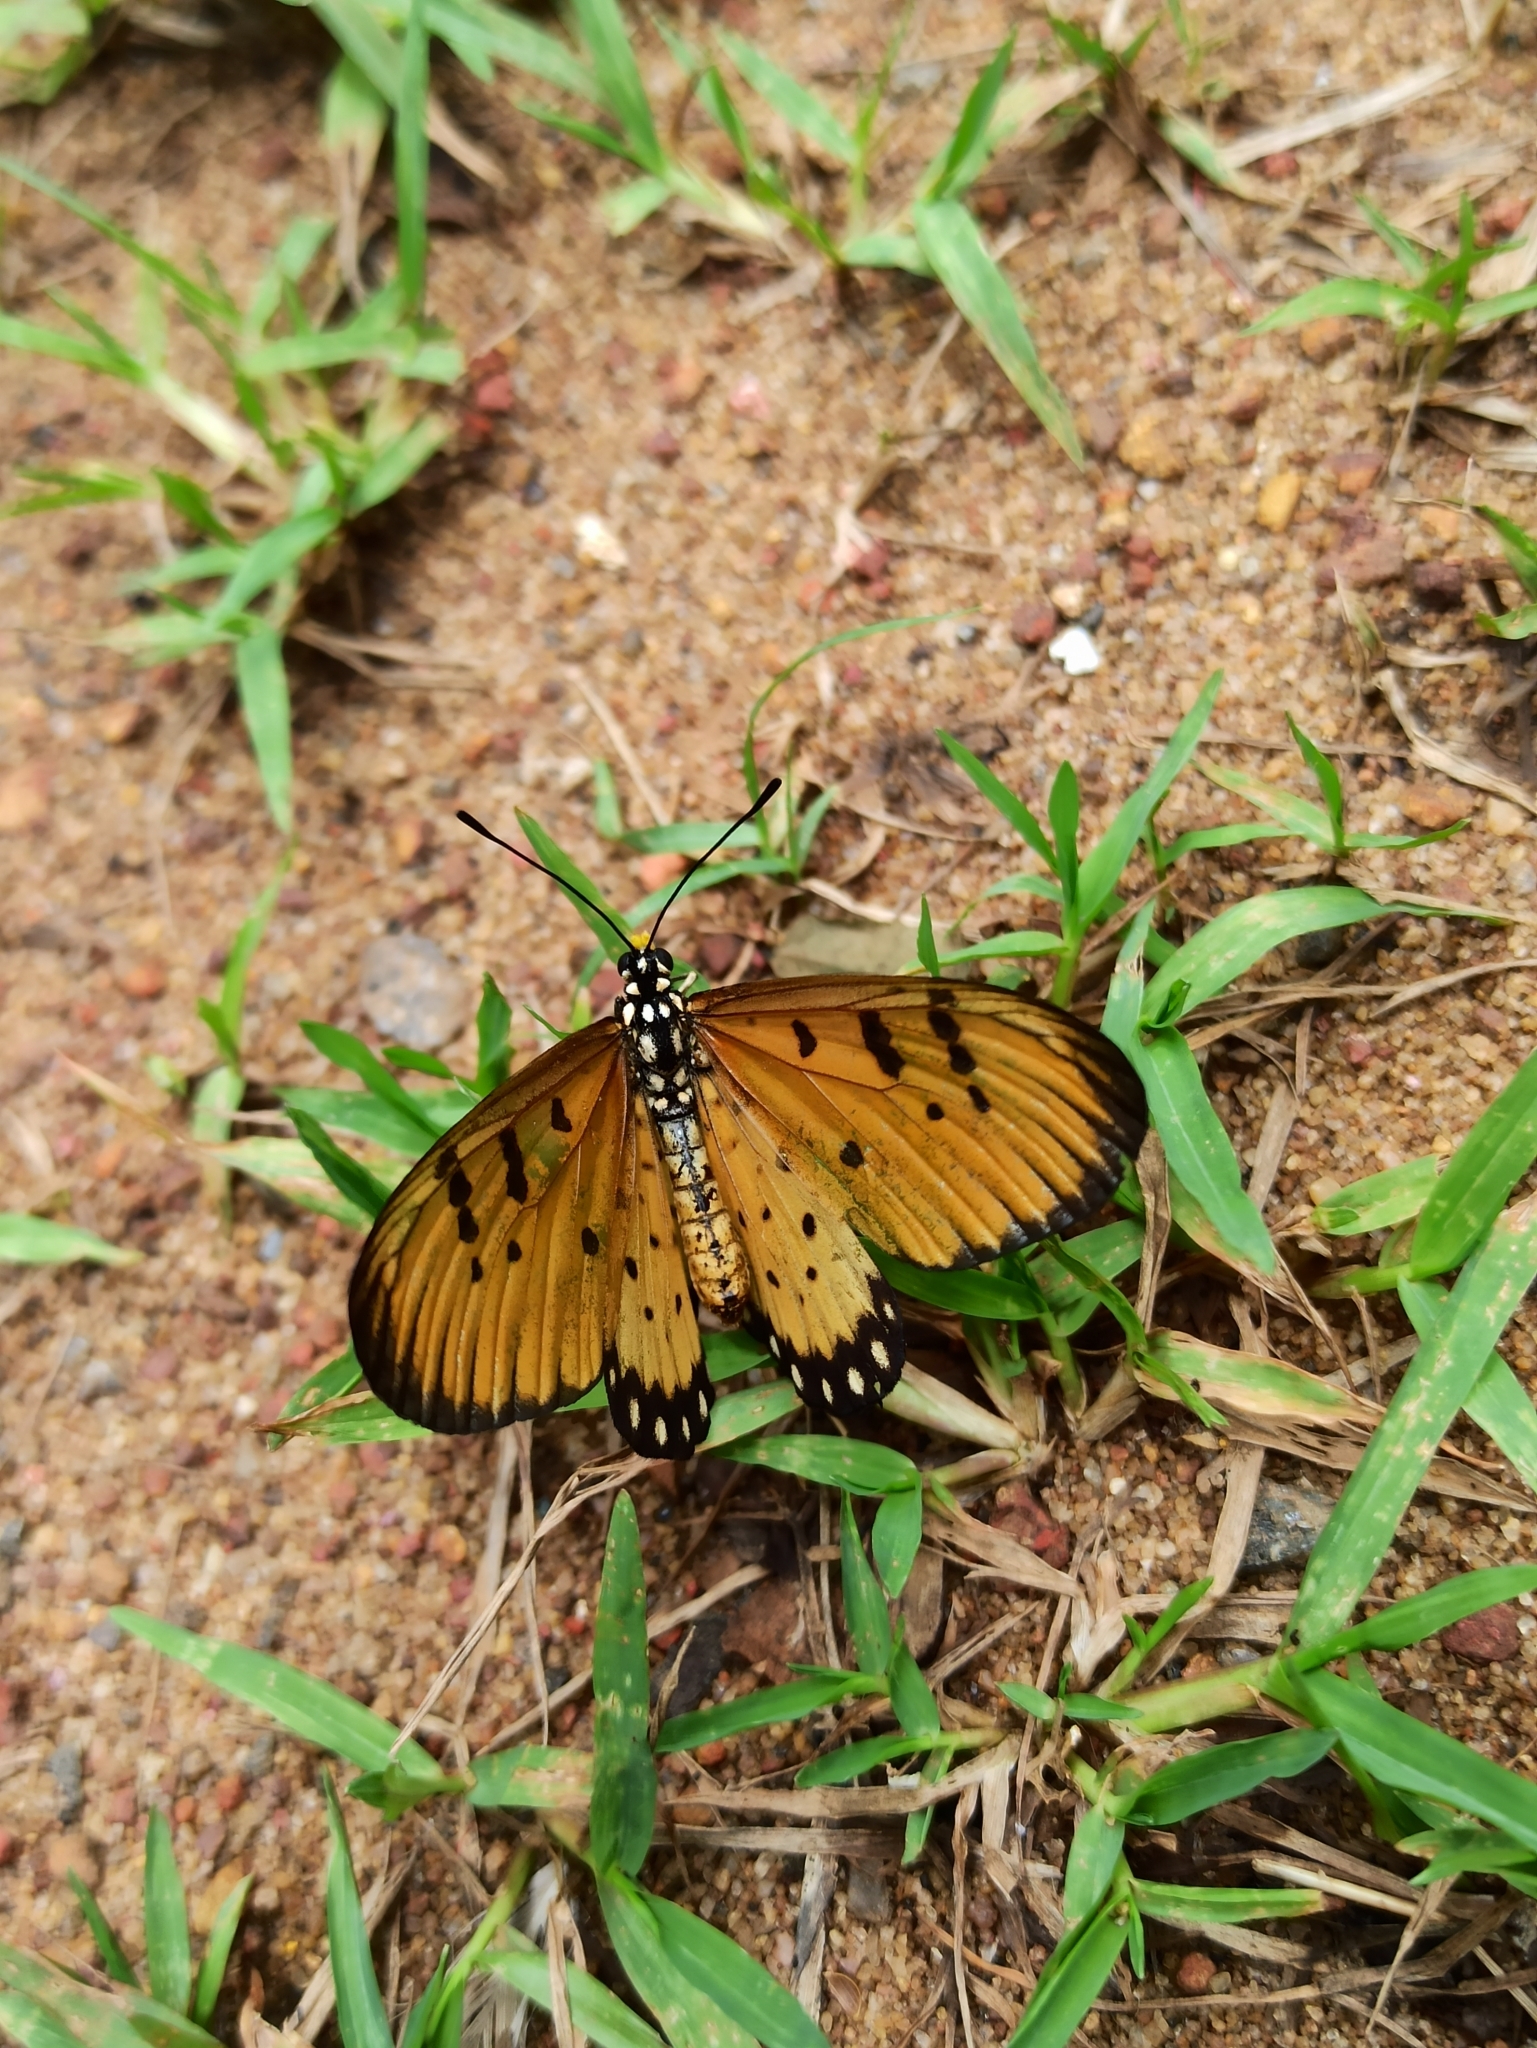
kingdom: Animalia
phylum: Arthropoda
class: Insecta
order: Lepidoptera
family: Nymphalidae
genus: Acraea
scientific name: Acraea terpsicore
